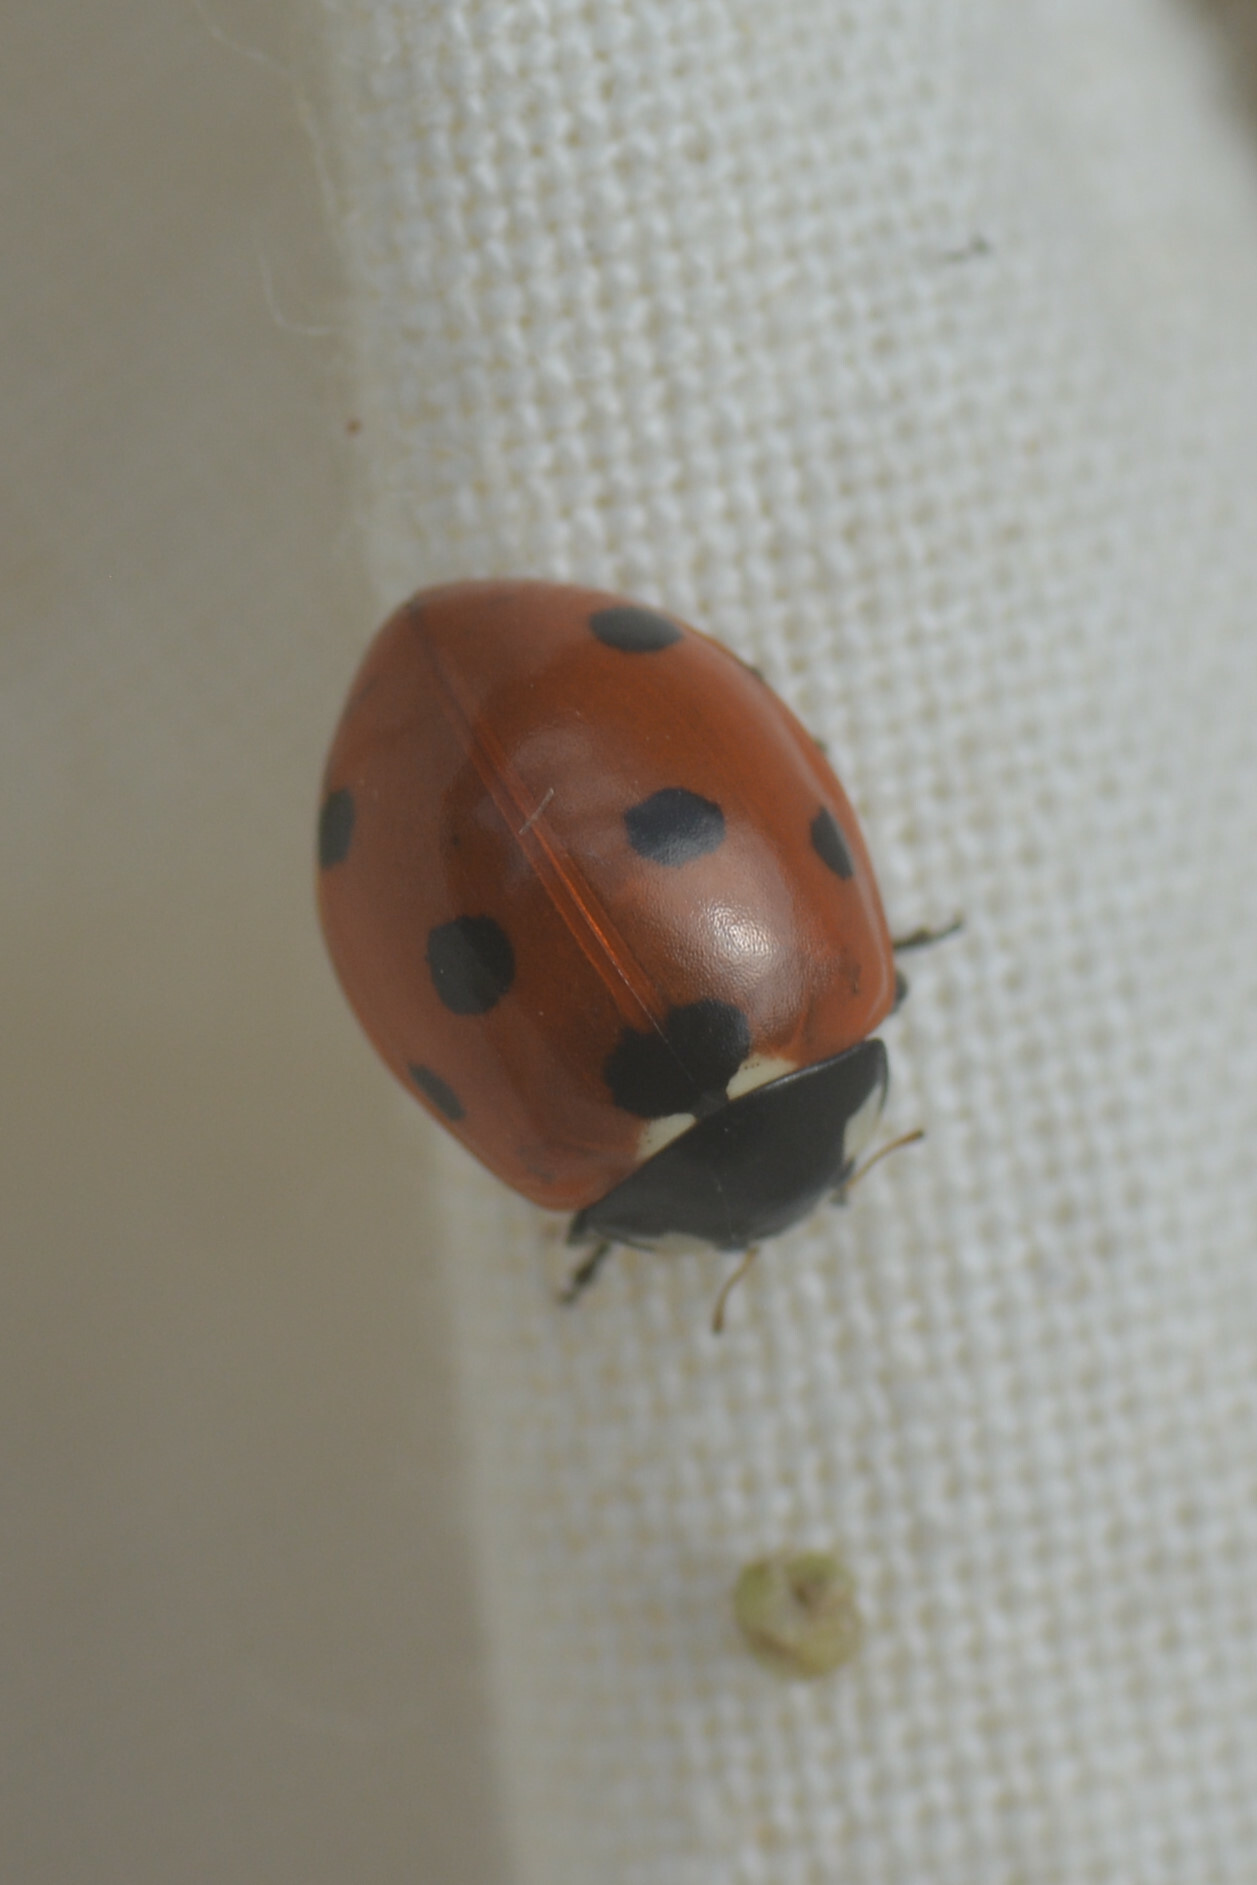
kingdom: Animalia
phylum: Arthropoda
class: Insecta
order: Coleoptera
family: Coccinellidae
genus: Coccinella
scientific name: Coccinella septempunctata
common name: Sevenspotted lady beetle
